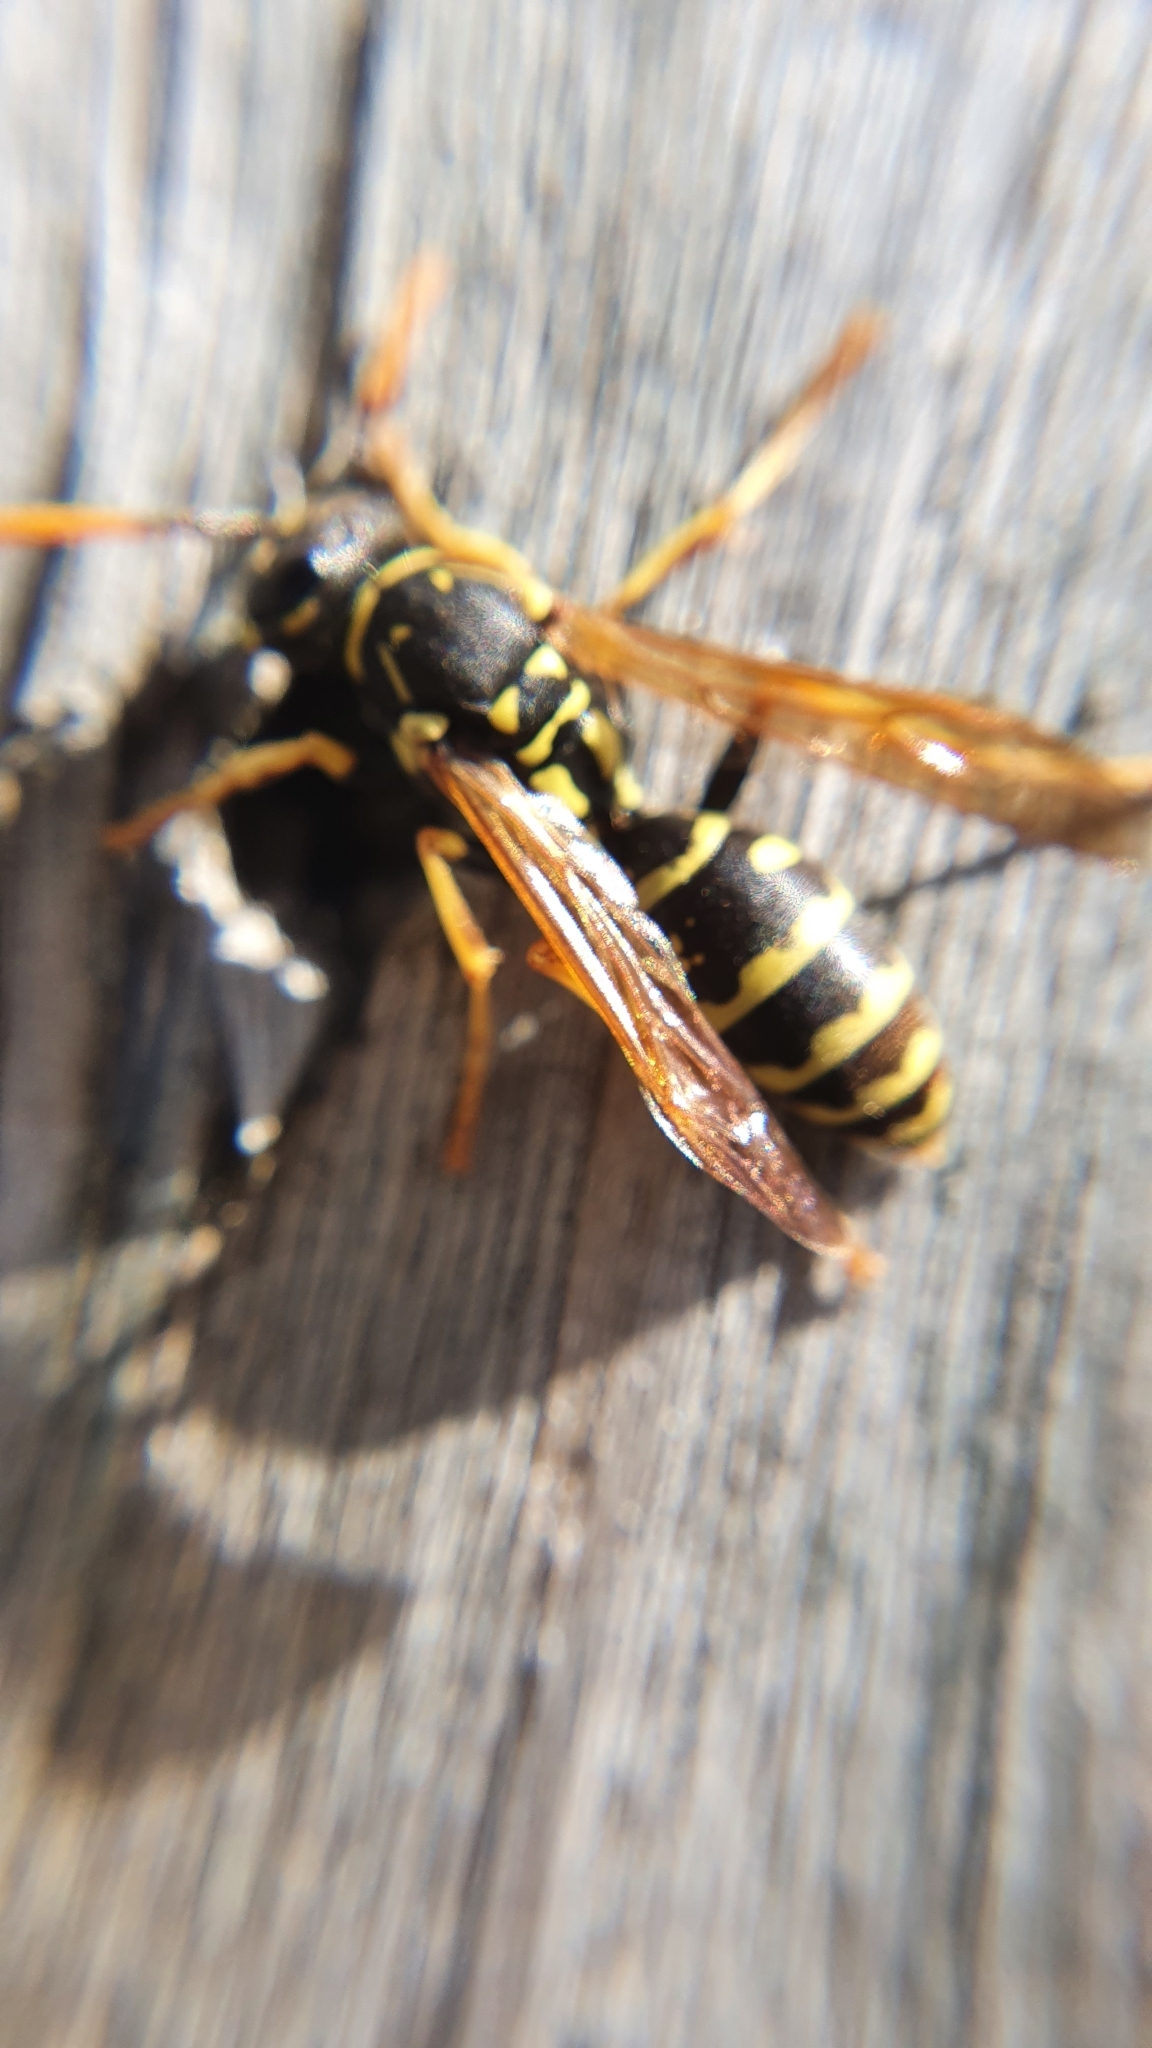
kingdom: Animalia
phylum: Arthropoda
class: Insecta
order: Hymenoptera
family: Eumenidae
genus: Polistes
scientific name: Polistes dominula
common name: Paper wasp
